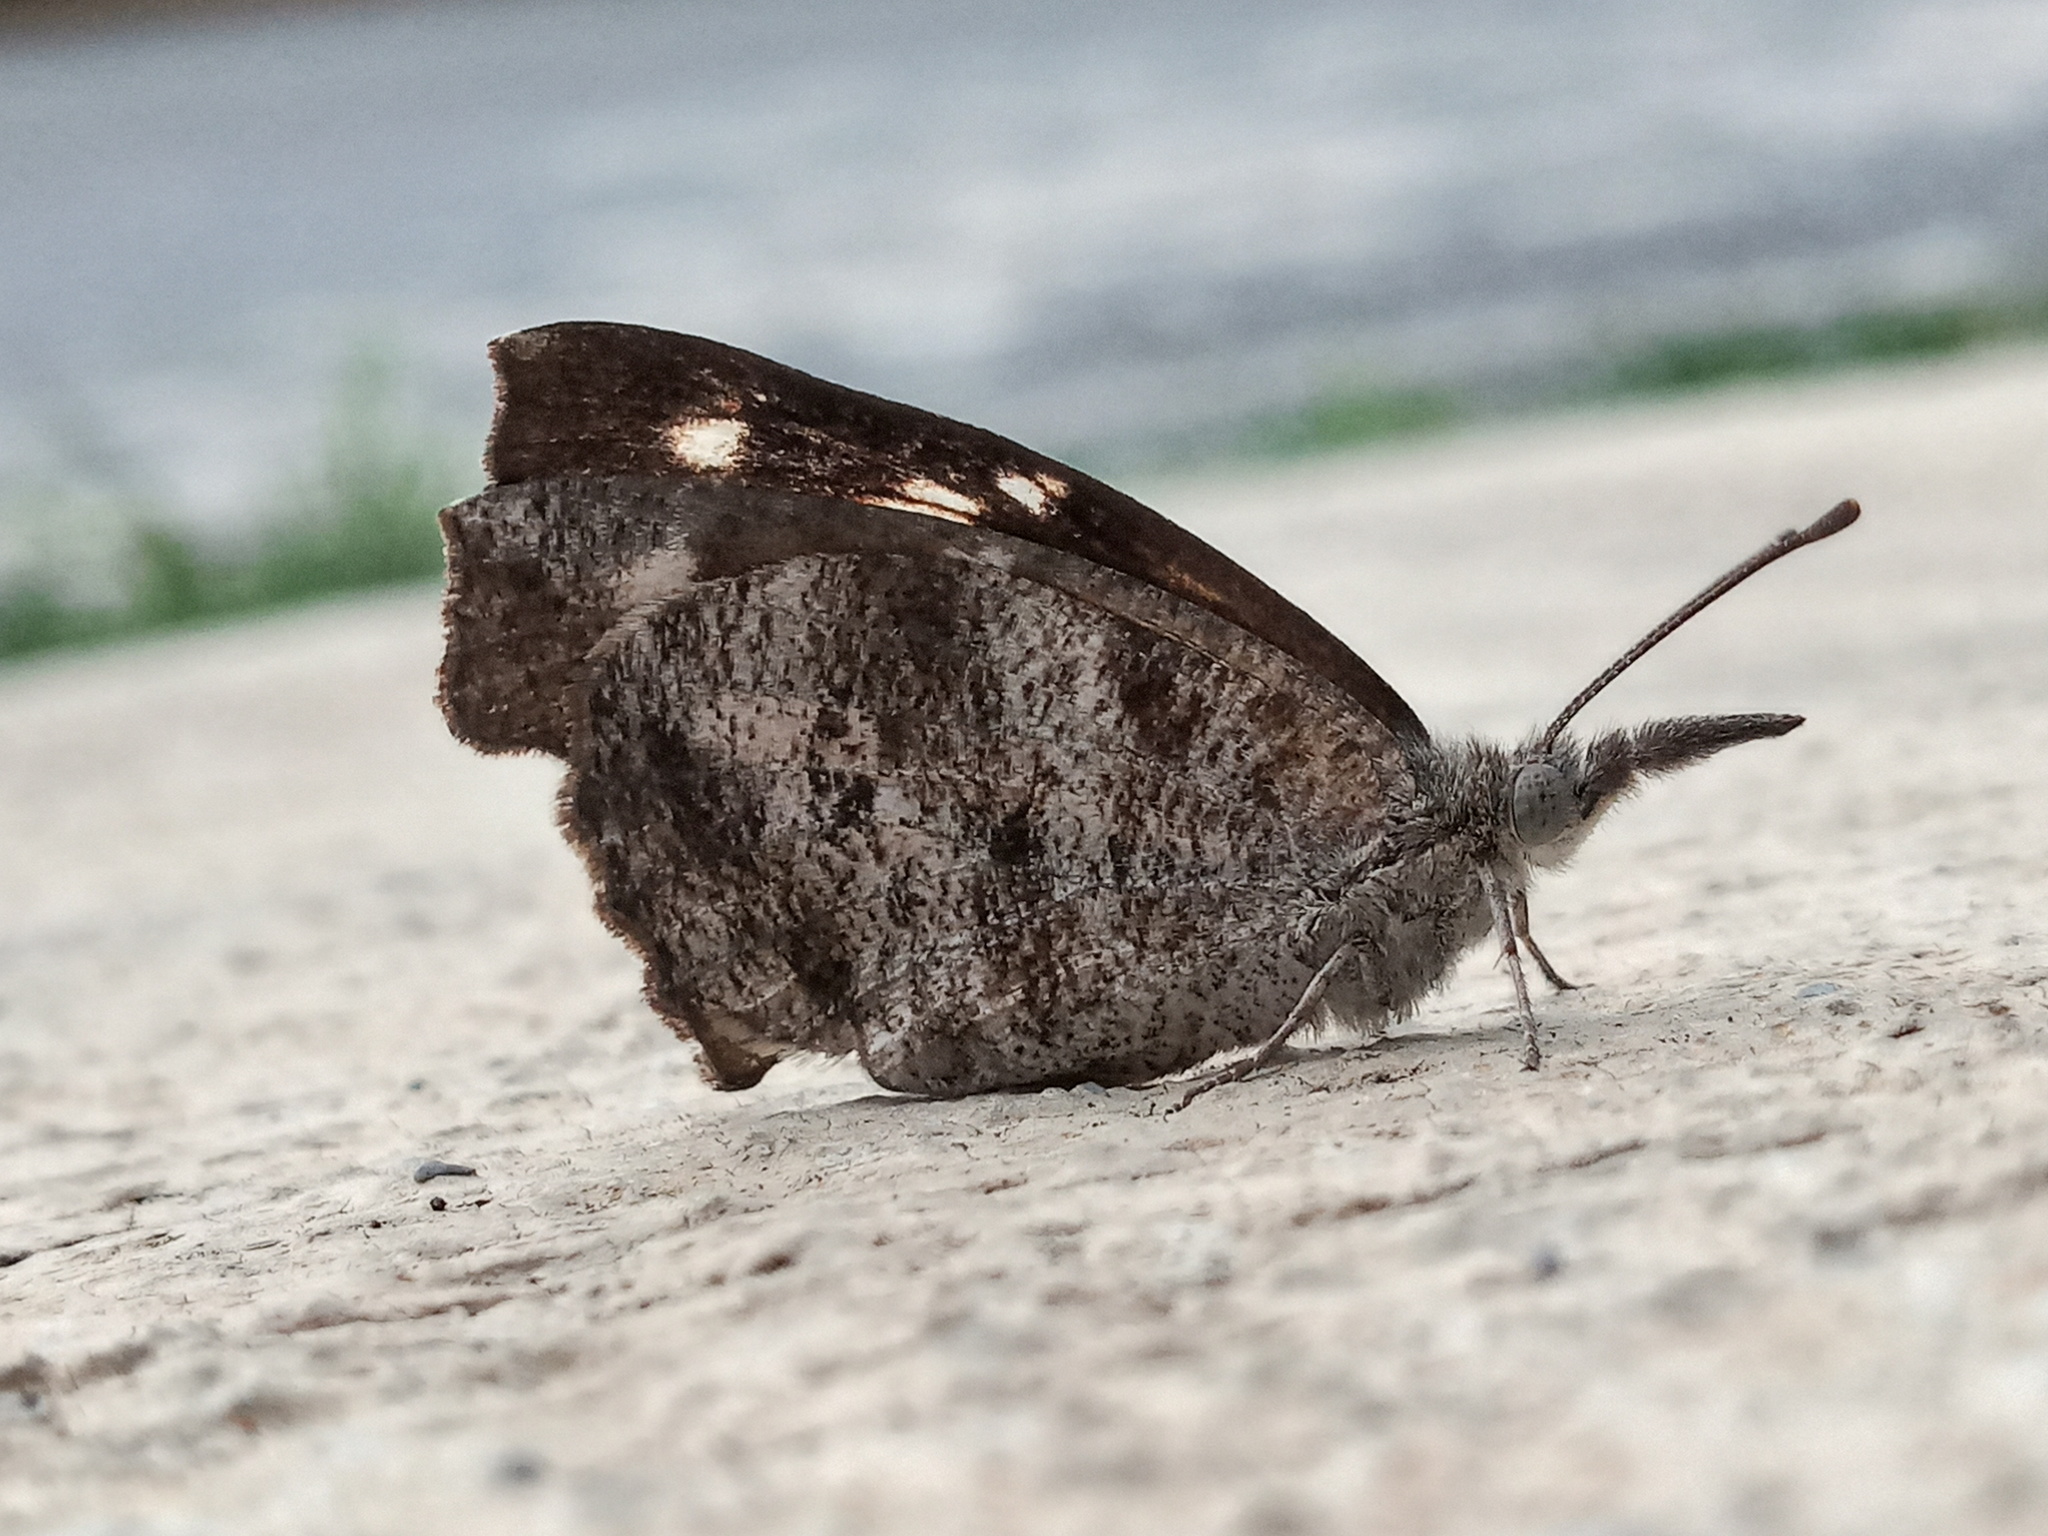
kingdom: Animalia
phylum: Arthropoda
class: Insecta
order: Lepidoptera
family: Nymphalidae
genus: Libytheana
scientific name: Libytheana carinenta
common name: American snout
